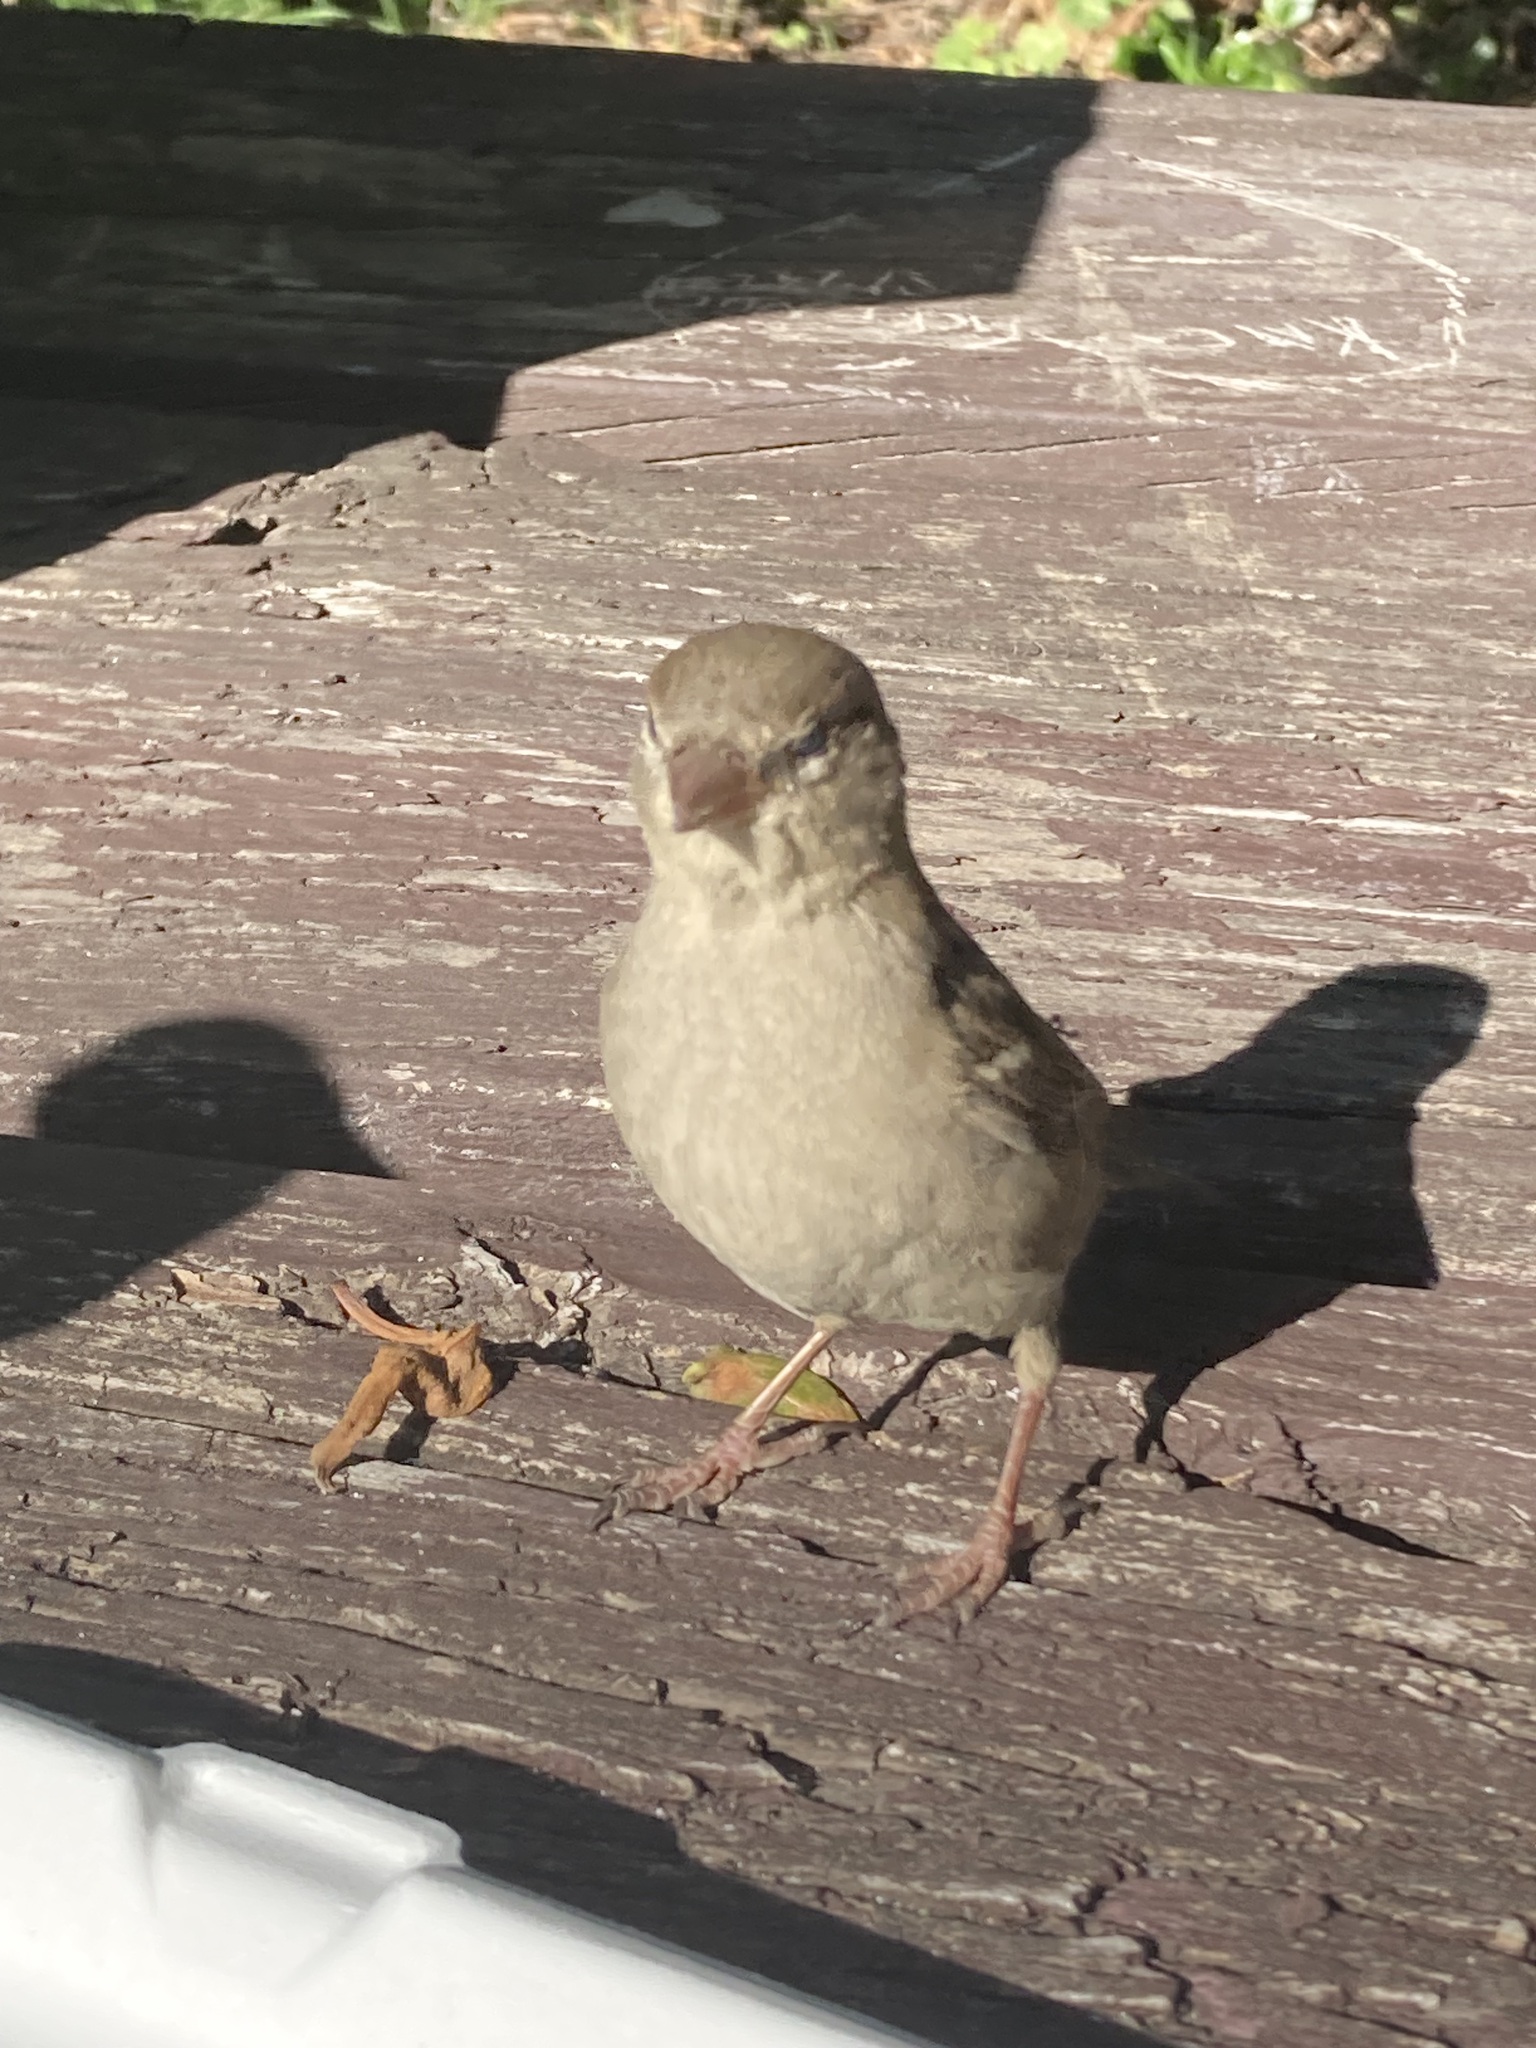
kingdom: Animalia
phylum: Chordata
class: Aves
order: Passeriformes
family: Passeridae
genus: Passer
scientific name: Passer domesticus
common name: House sparrow
